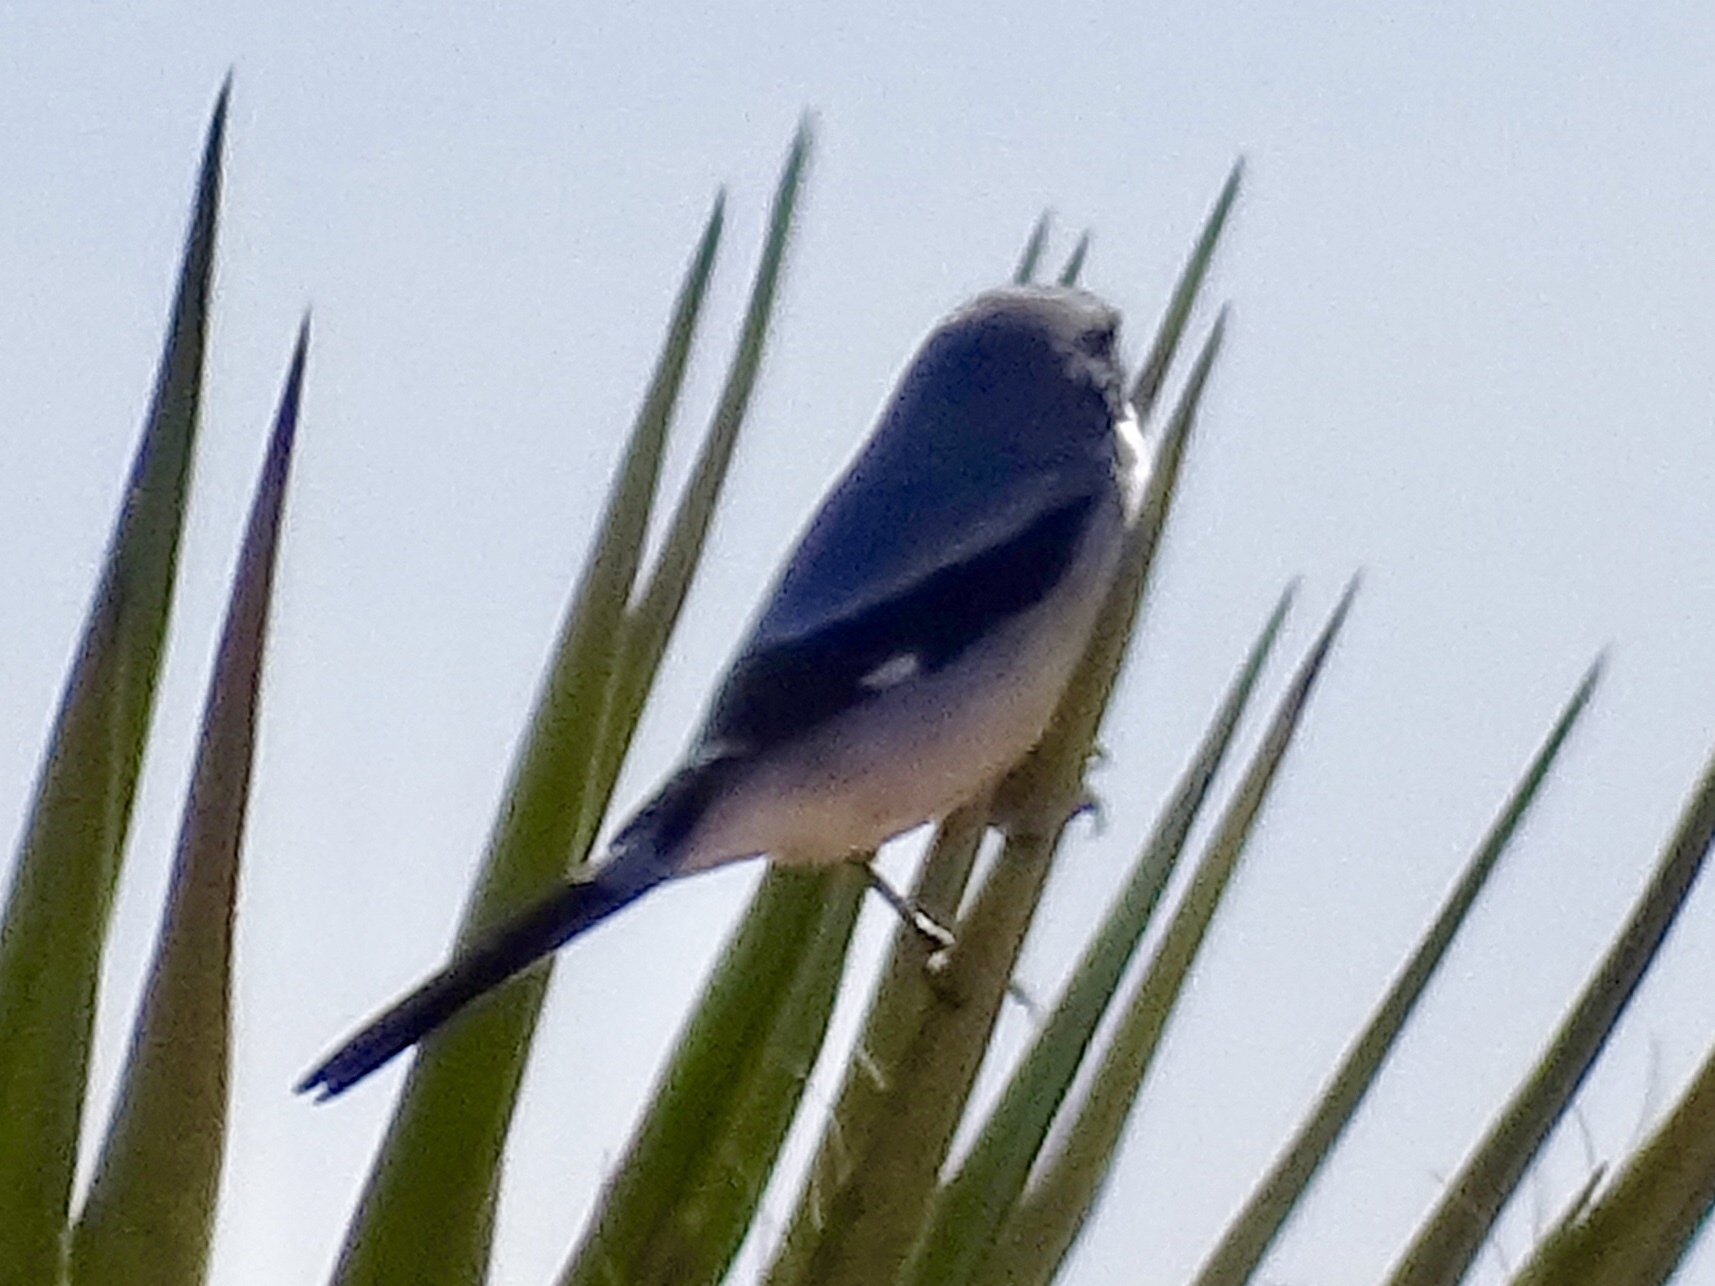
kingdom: Animalia
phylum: Chordata
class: Aves
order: Passeriformes
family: Laniidae
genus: Lanius
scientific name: Lanius ludovicianus
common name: Loggerhead shrike
